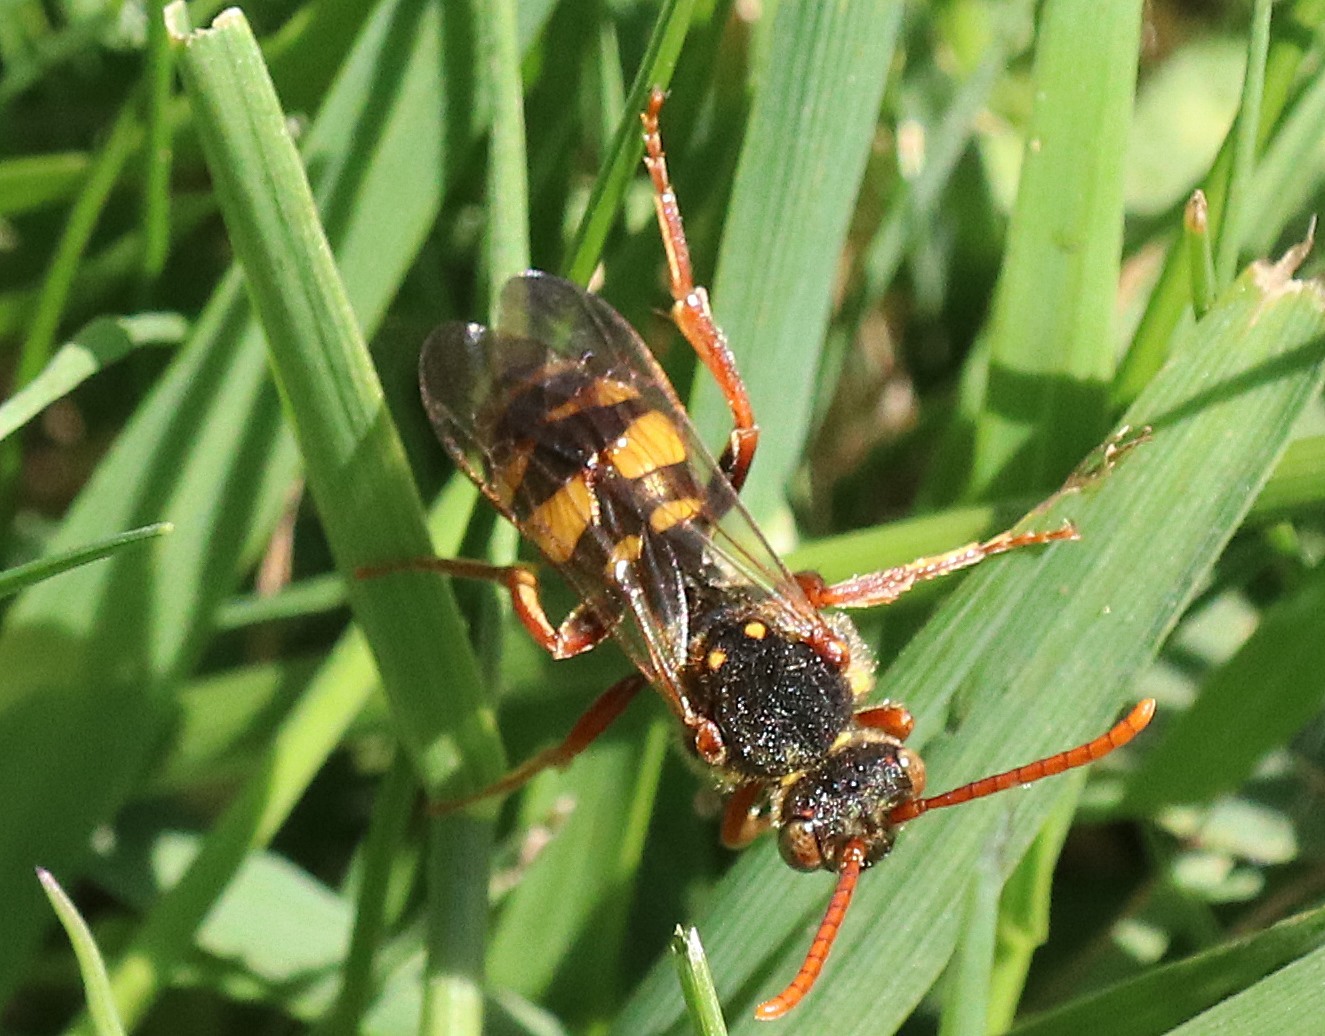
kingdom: Animalia
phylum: Arthropoda
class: Insecta
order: Hymenoptera
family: Apidae
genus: Nomada
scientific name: Nomada marshamella
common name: Marsham's nomad bee
